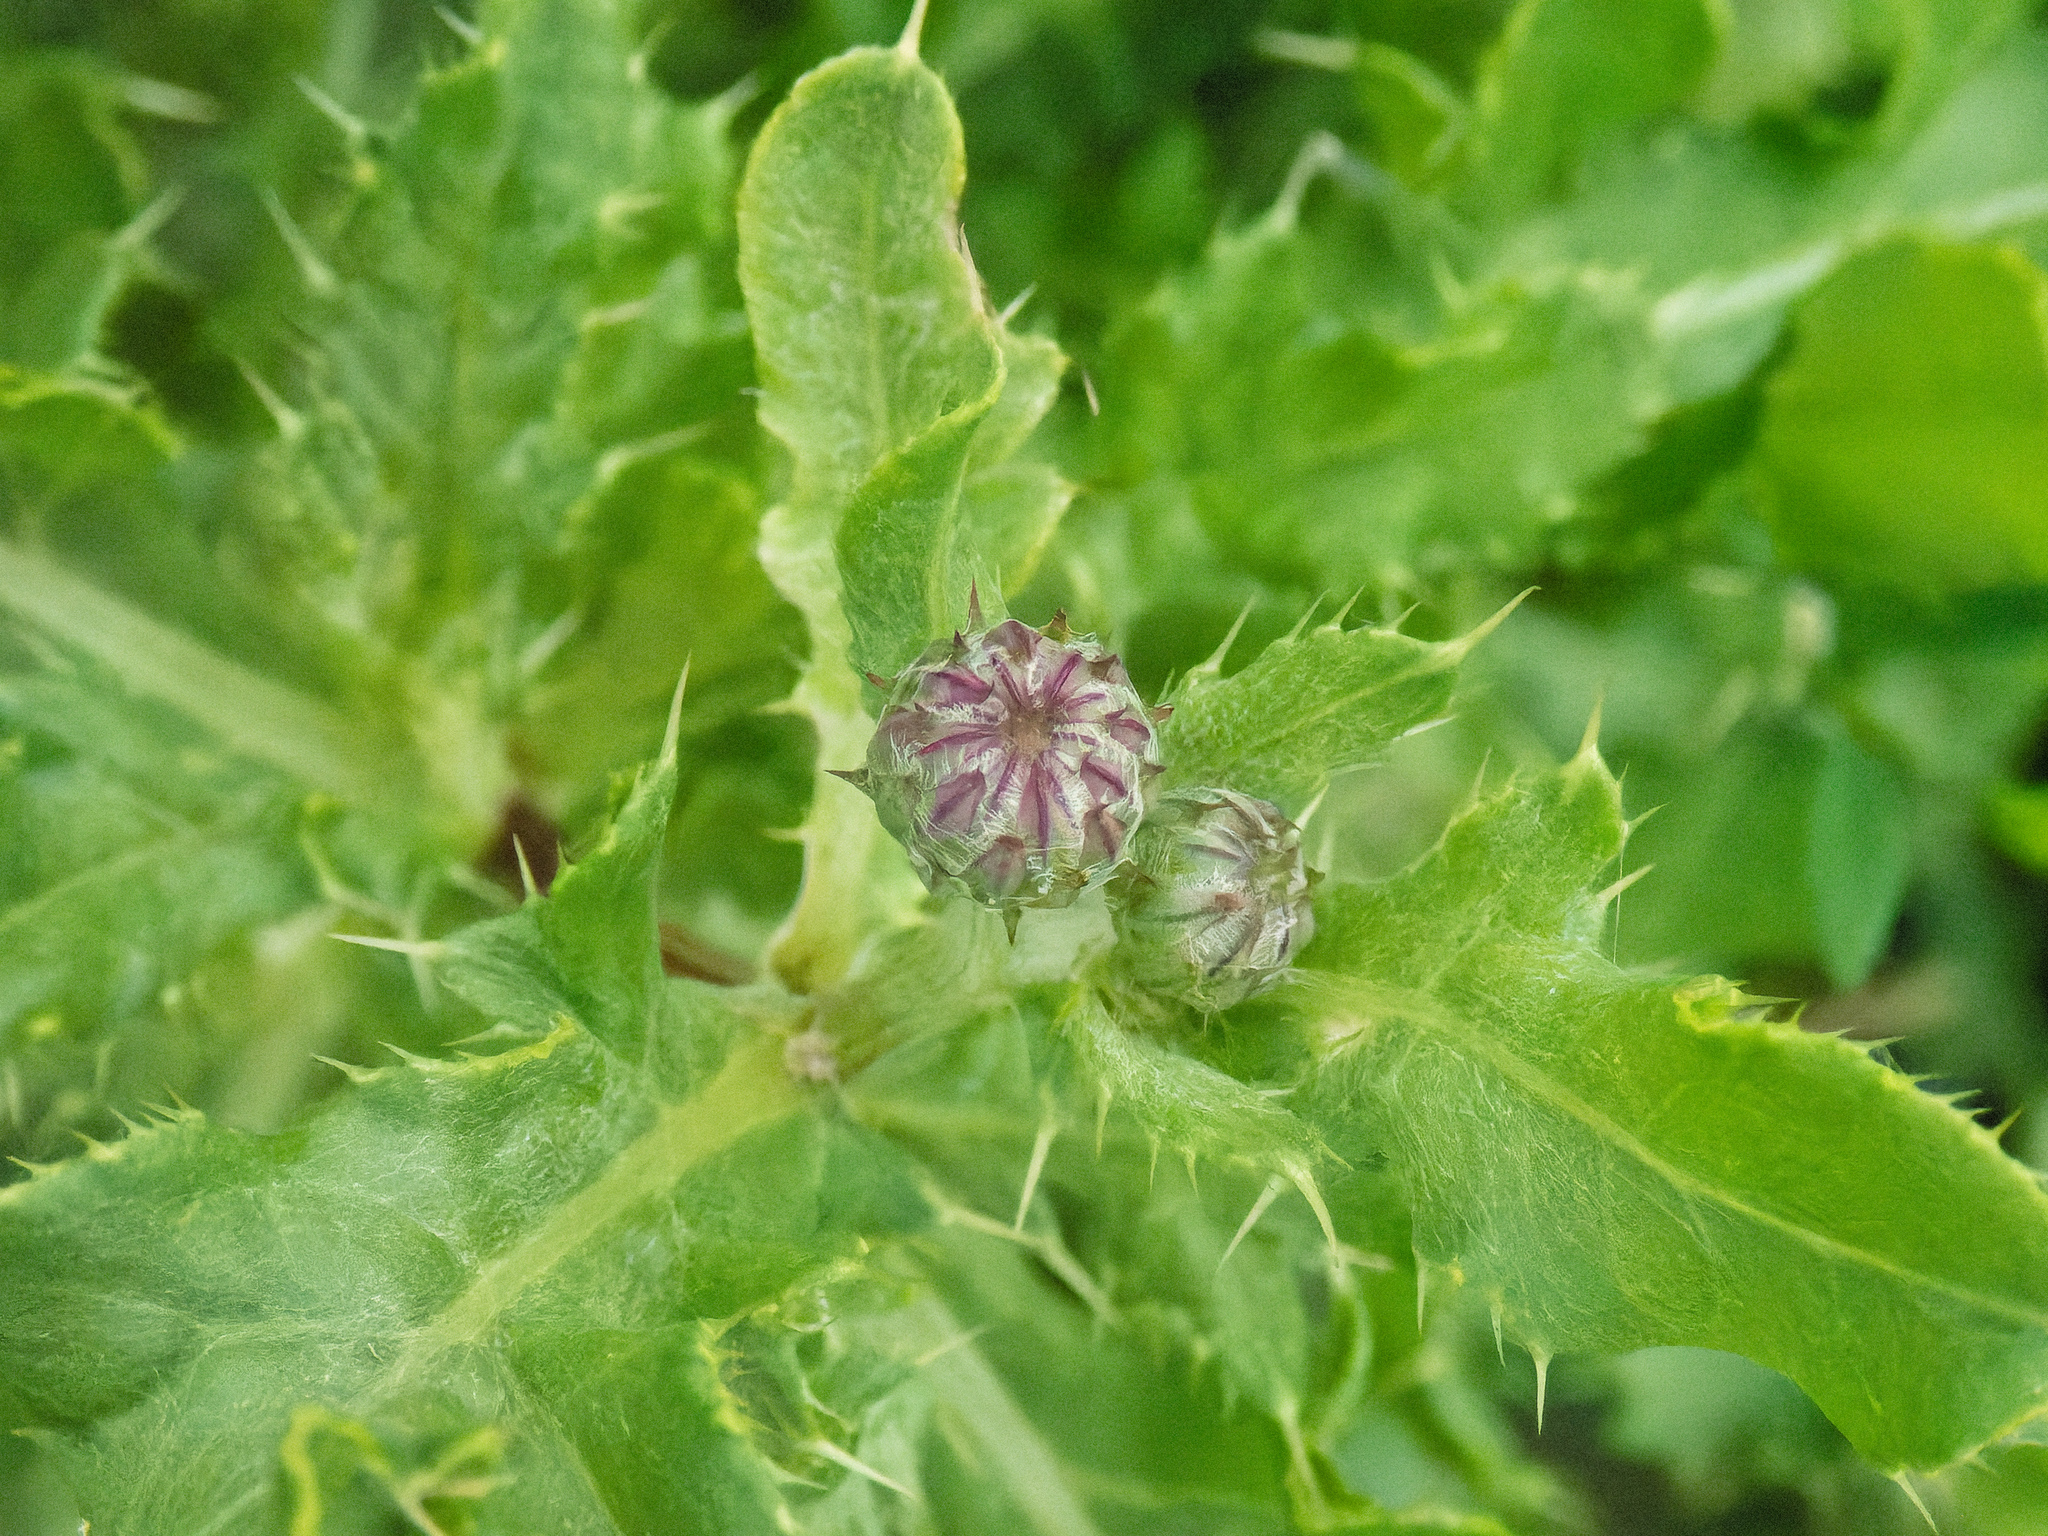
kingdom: Plantae
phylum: Tracheophyta
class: Magnoliopsida
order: Asterales
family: Asteraceae
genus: Cirsium
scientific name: Cirsium arvense
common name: Creeping thistle
